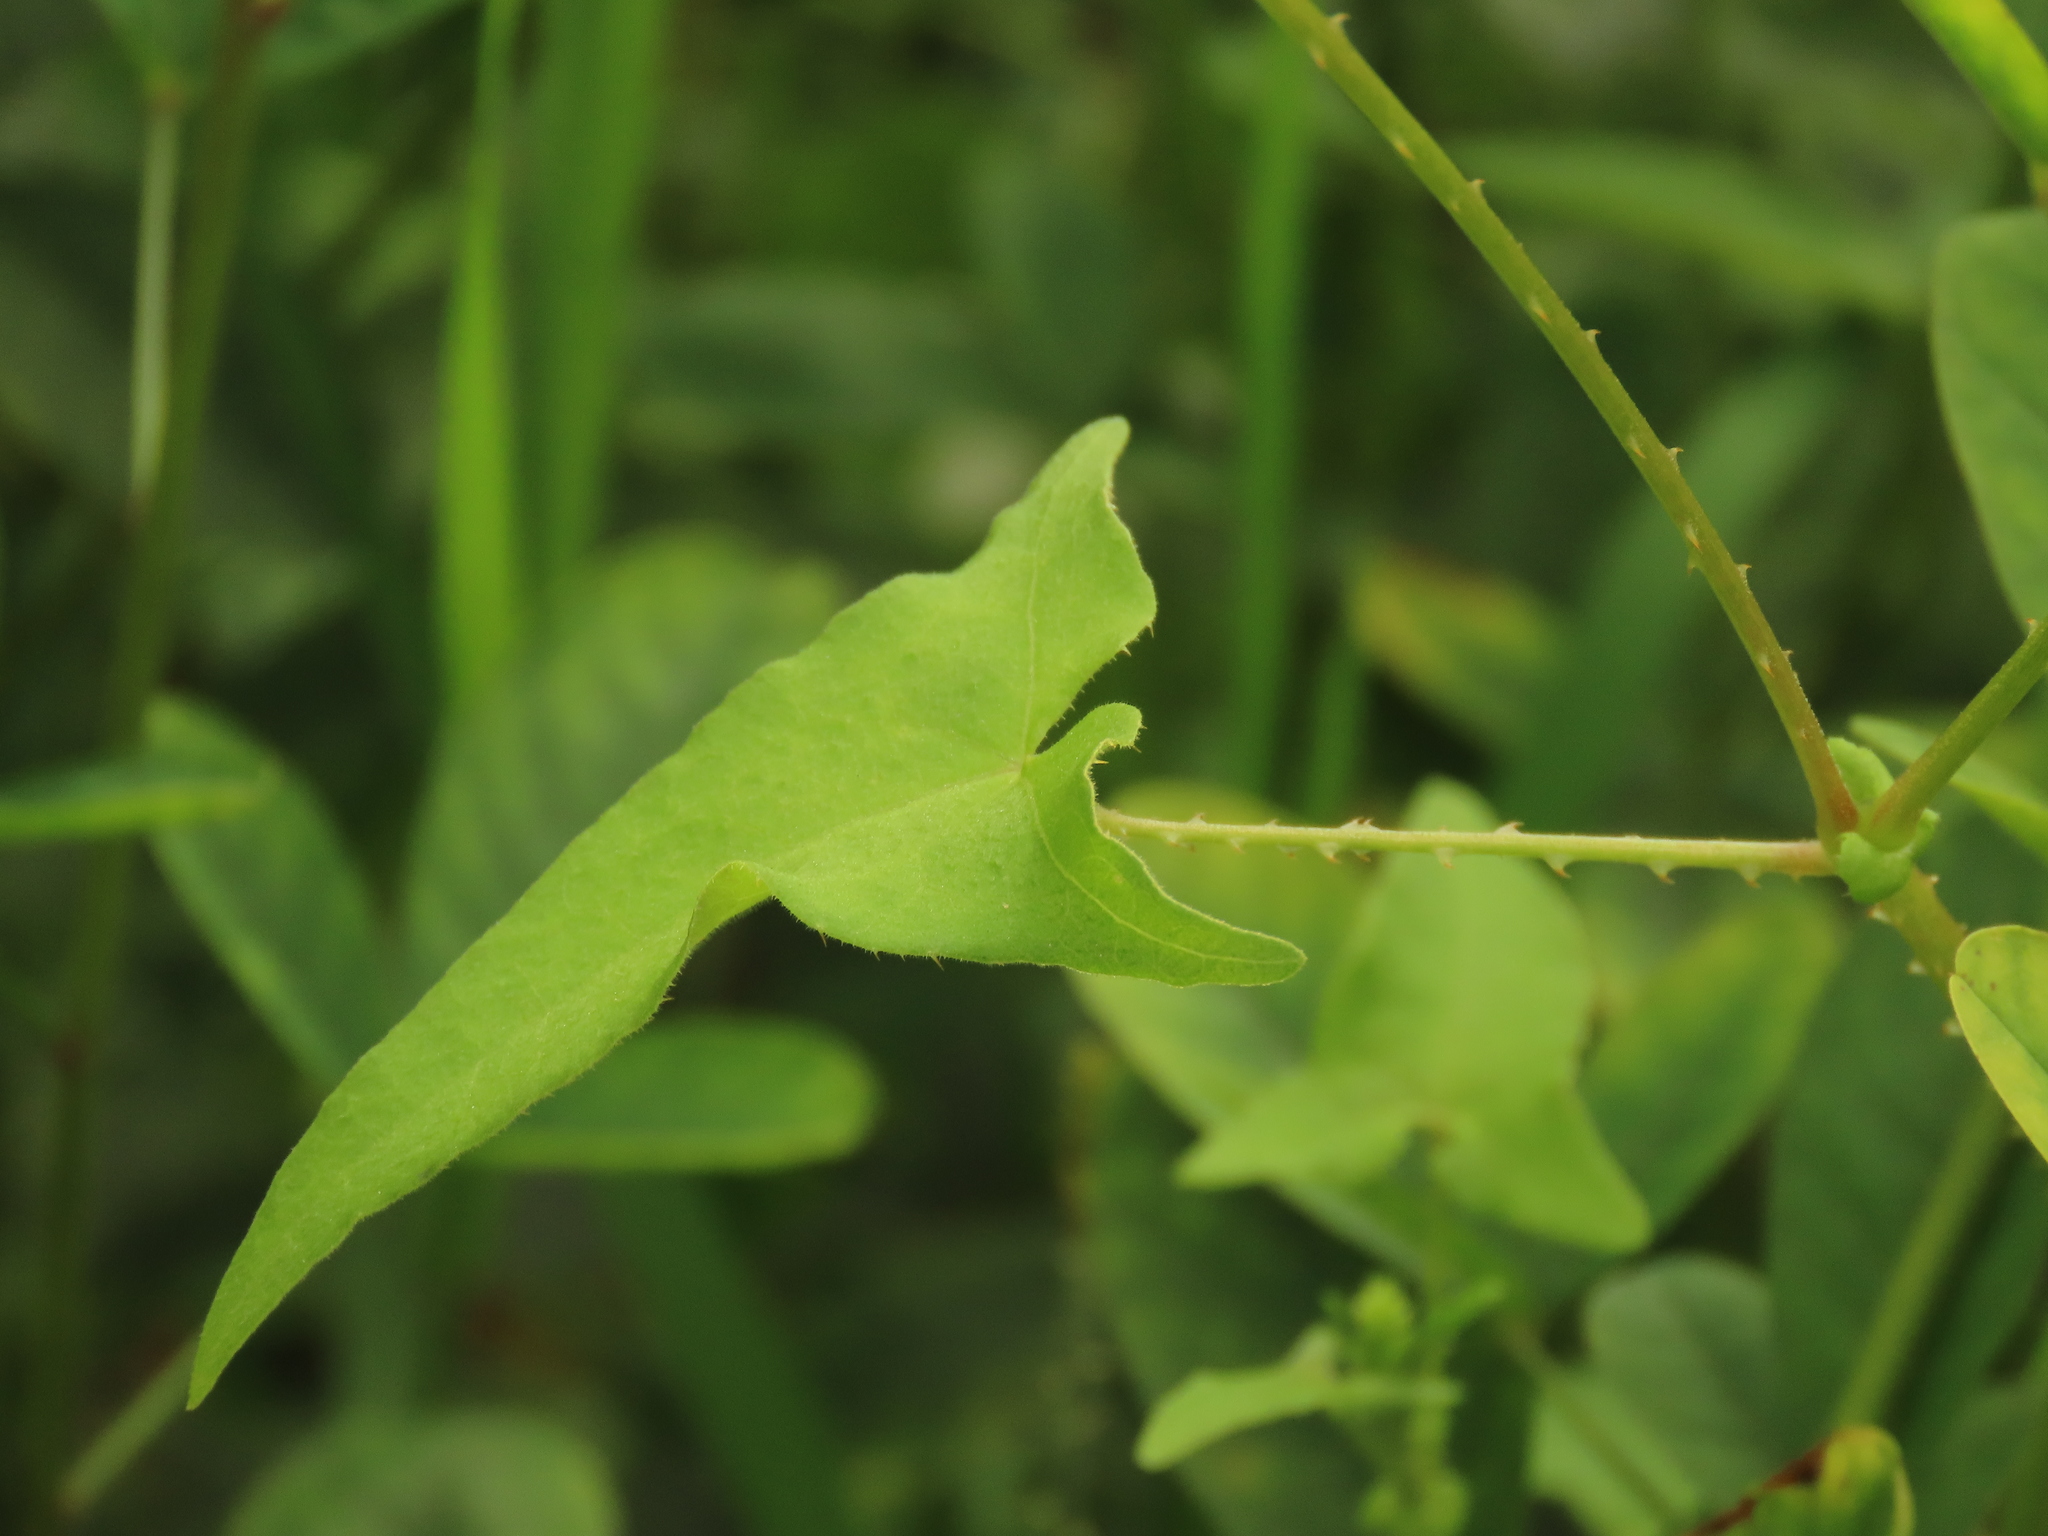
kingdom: Plantae
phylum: Tracheophyta
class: Magnoliopsida
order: Caryophyllales
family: Polygonaceae
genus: Persicaria
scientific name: Persicaria senticosa
